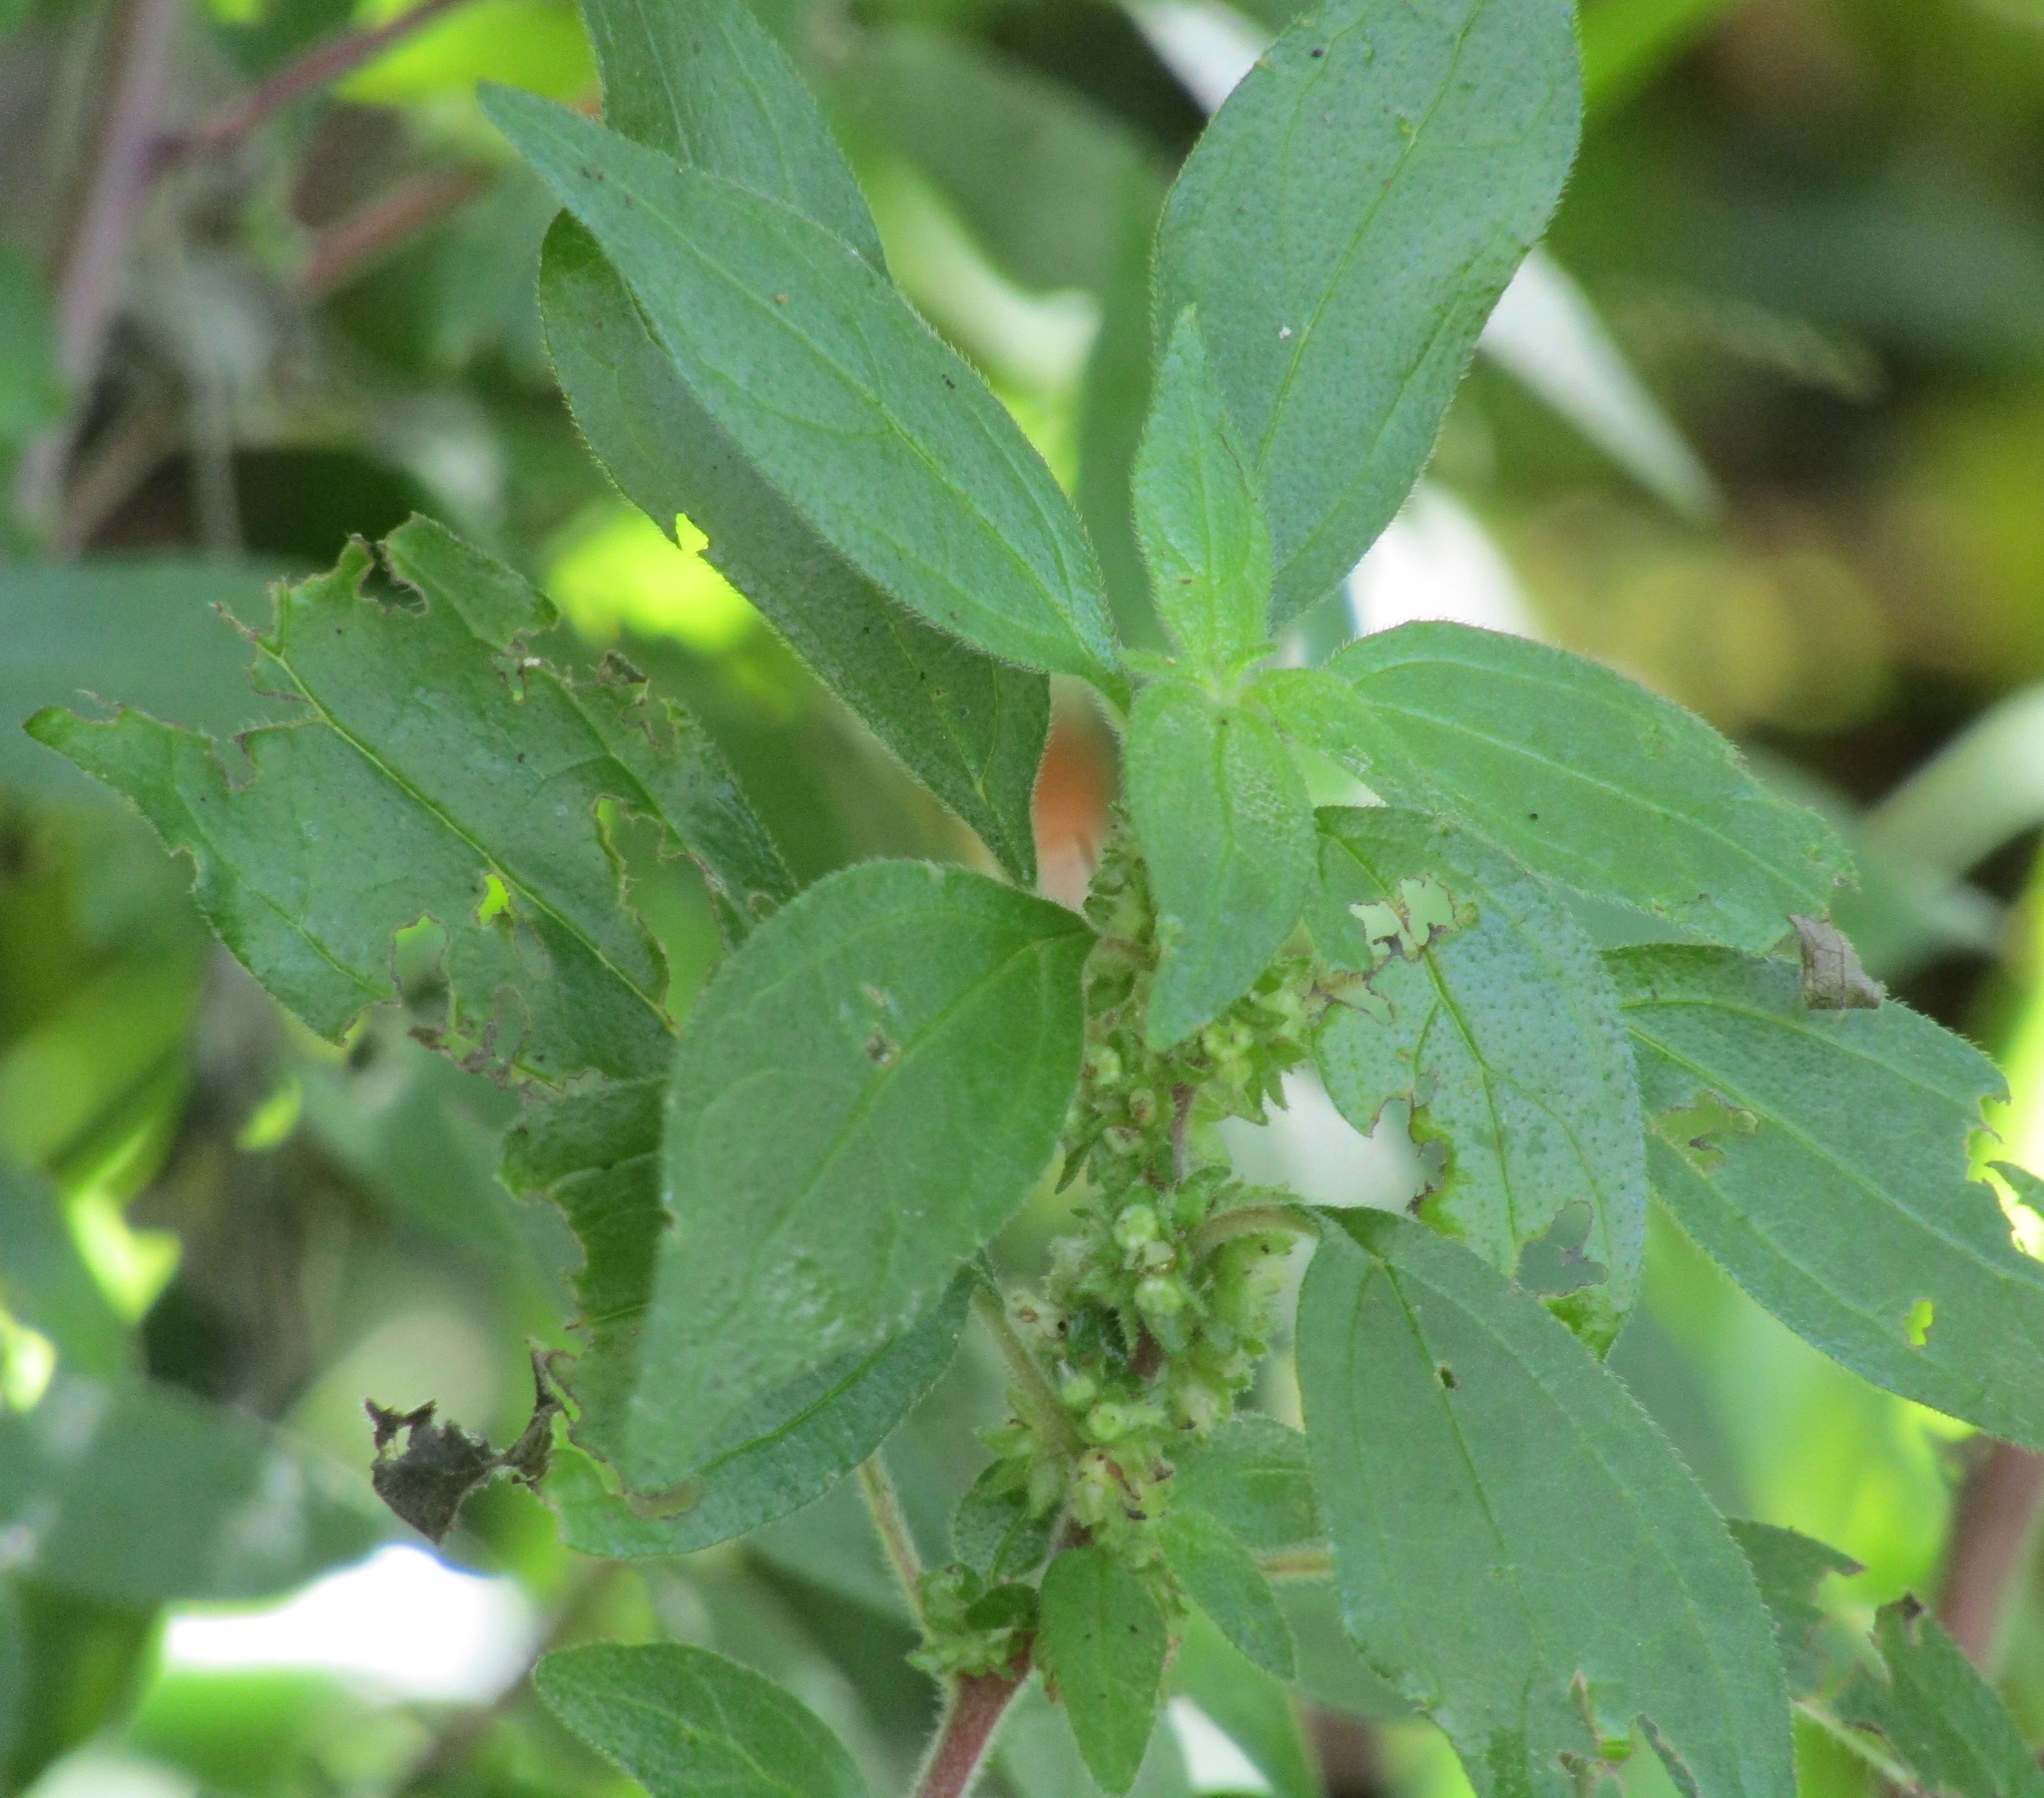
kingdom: Plantae
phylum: Tracheophyta
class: Magnoliopsida
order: Rosales
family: Urticaceae
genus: Parietaria
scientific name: Parietaria judaica
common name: Pellitory-of-the-wall
